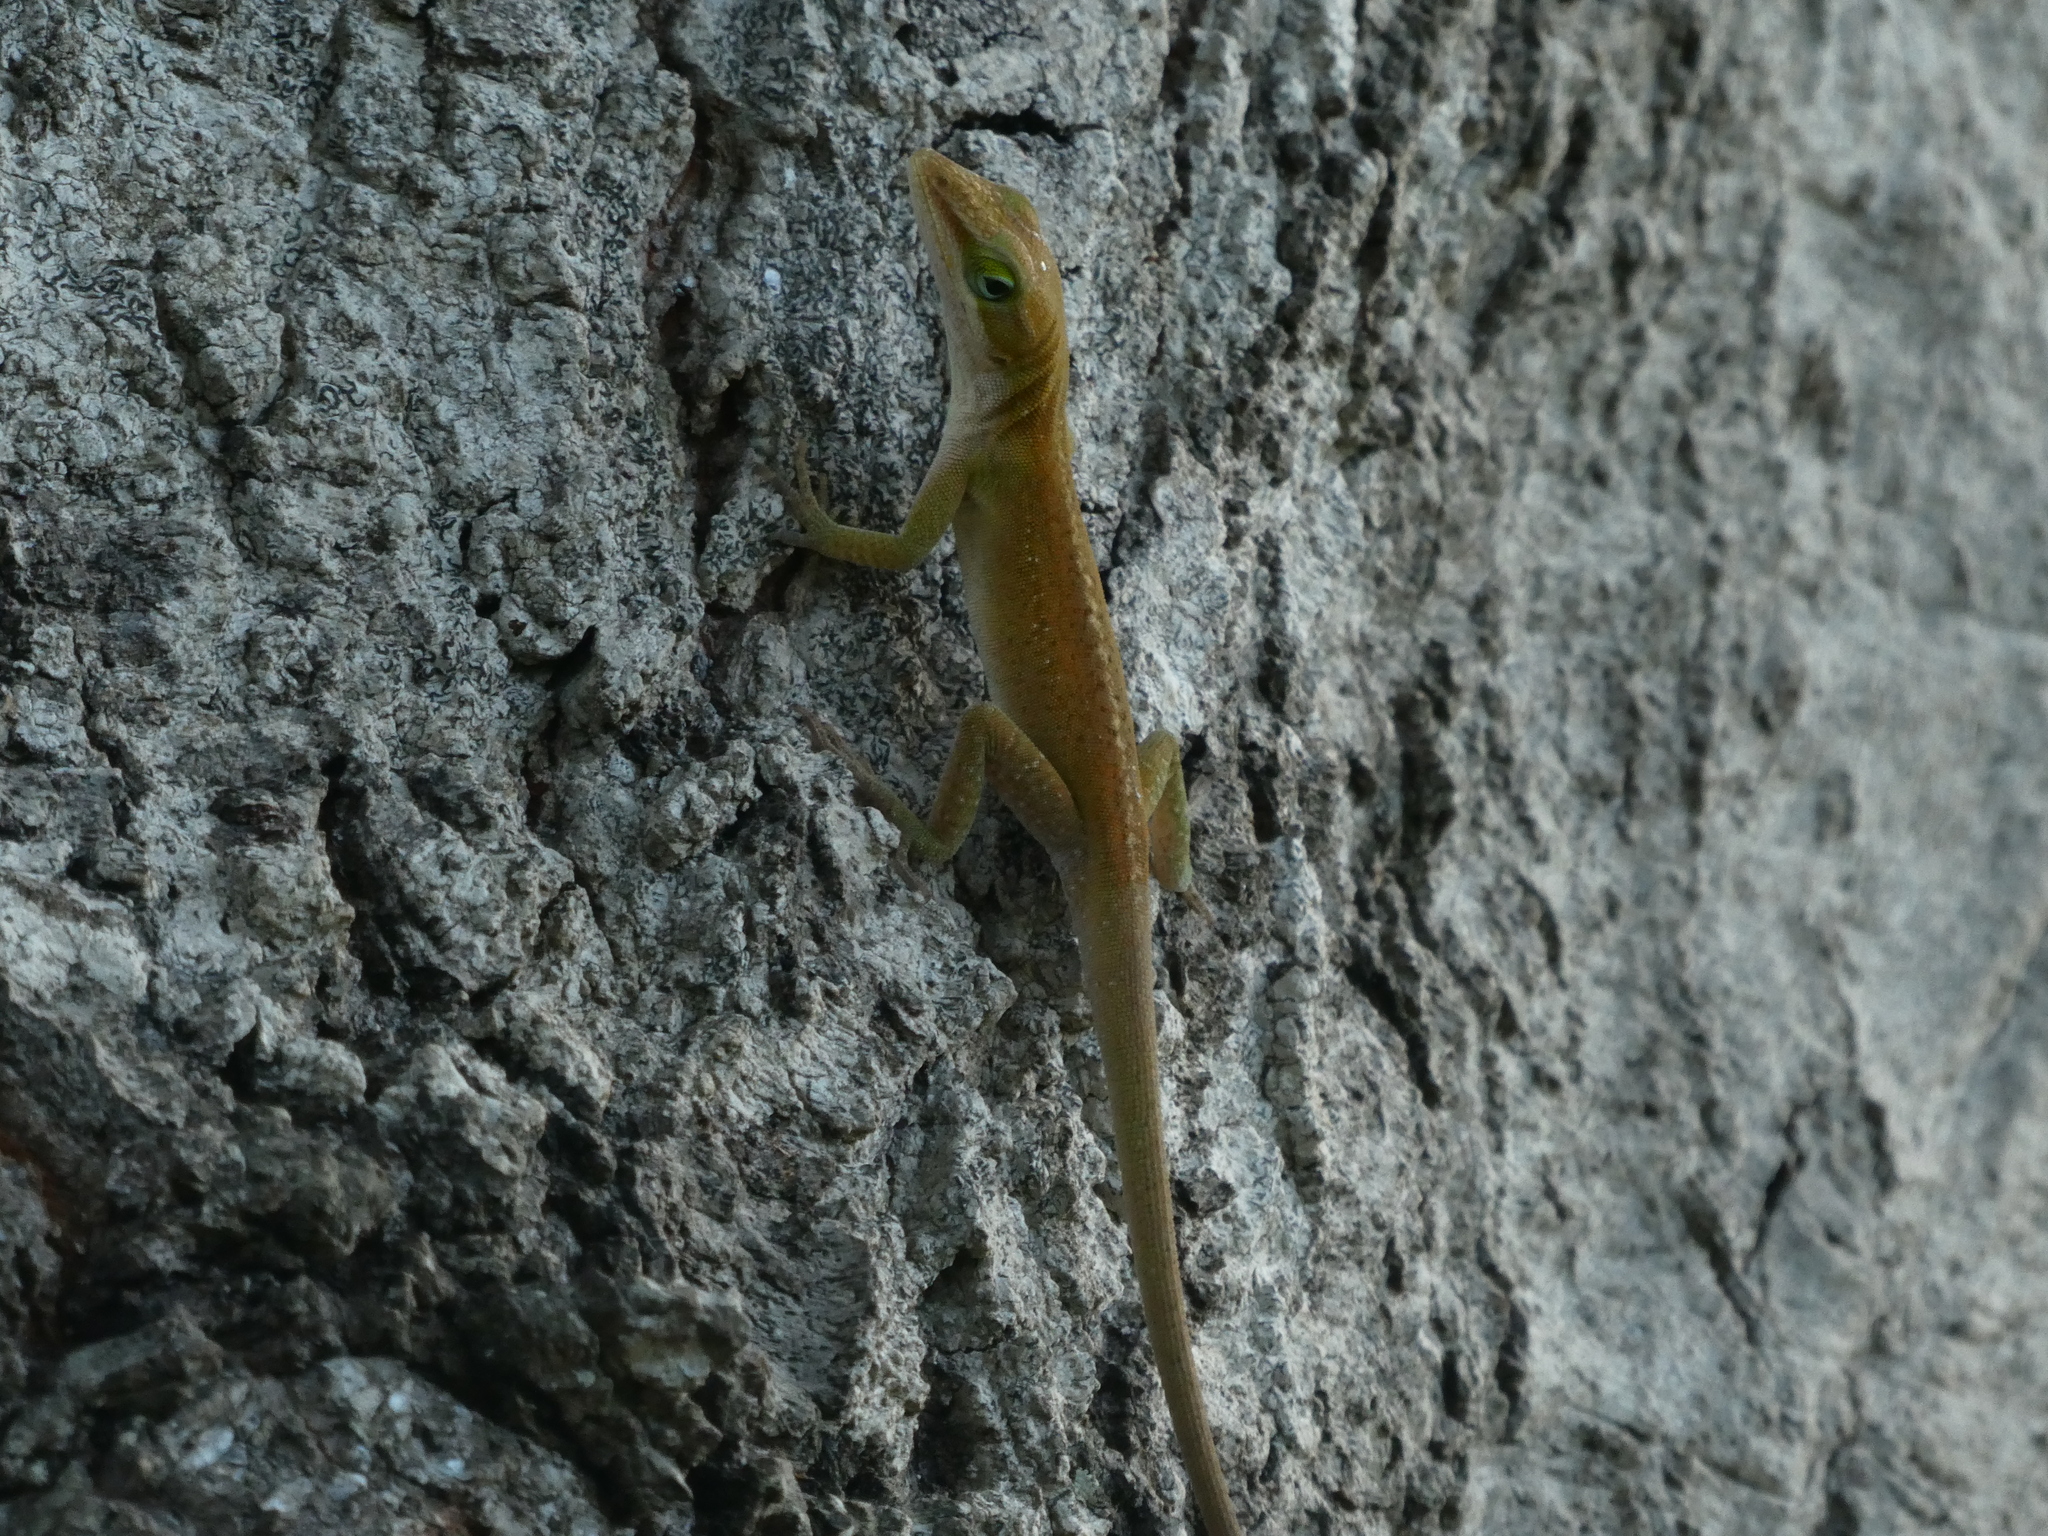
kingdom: Animalia
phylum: Chordata
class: Squamata
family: Dactyloidae
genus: Anolis
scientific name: Anolis carolinensis
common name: Green anole
